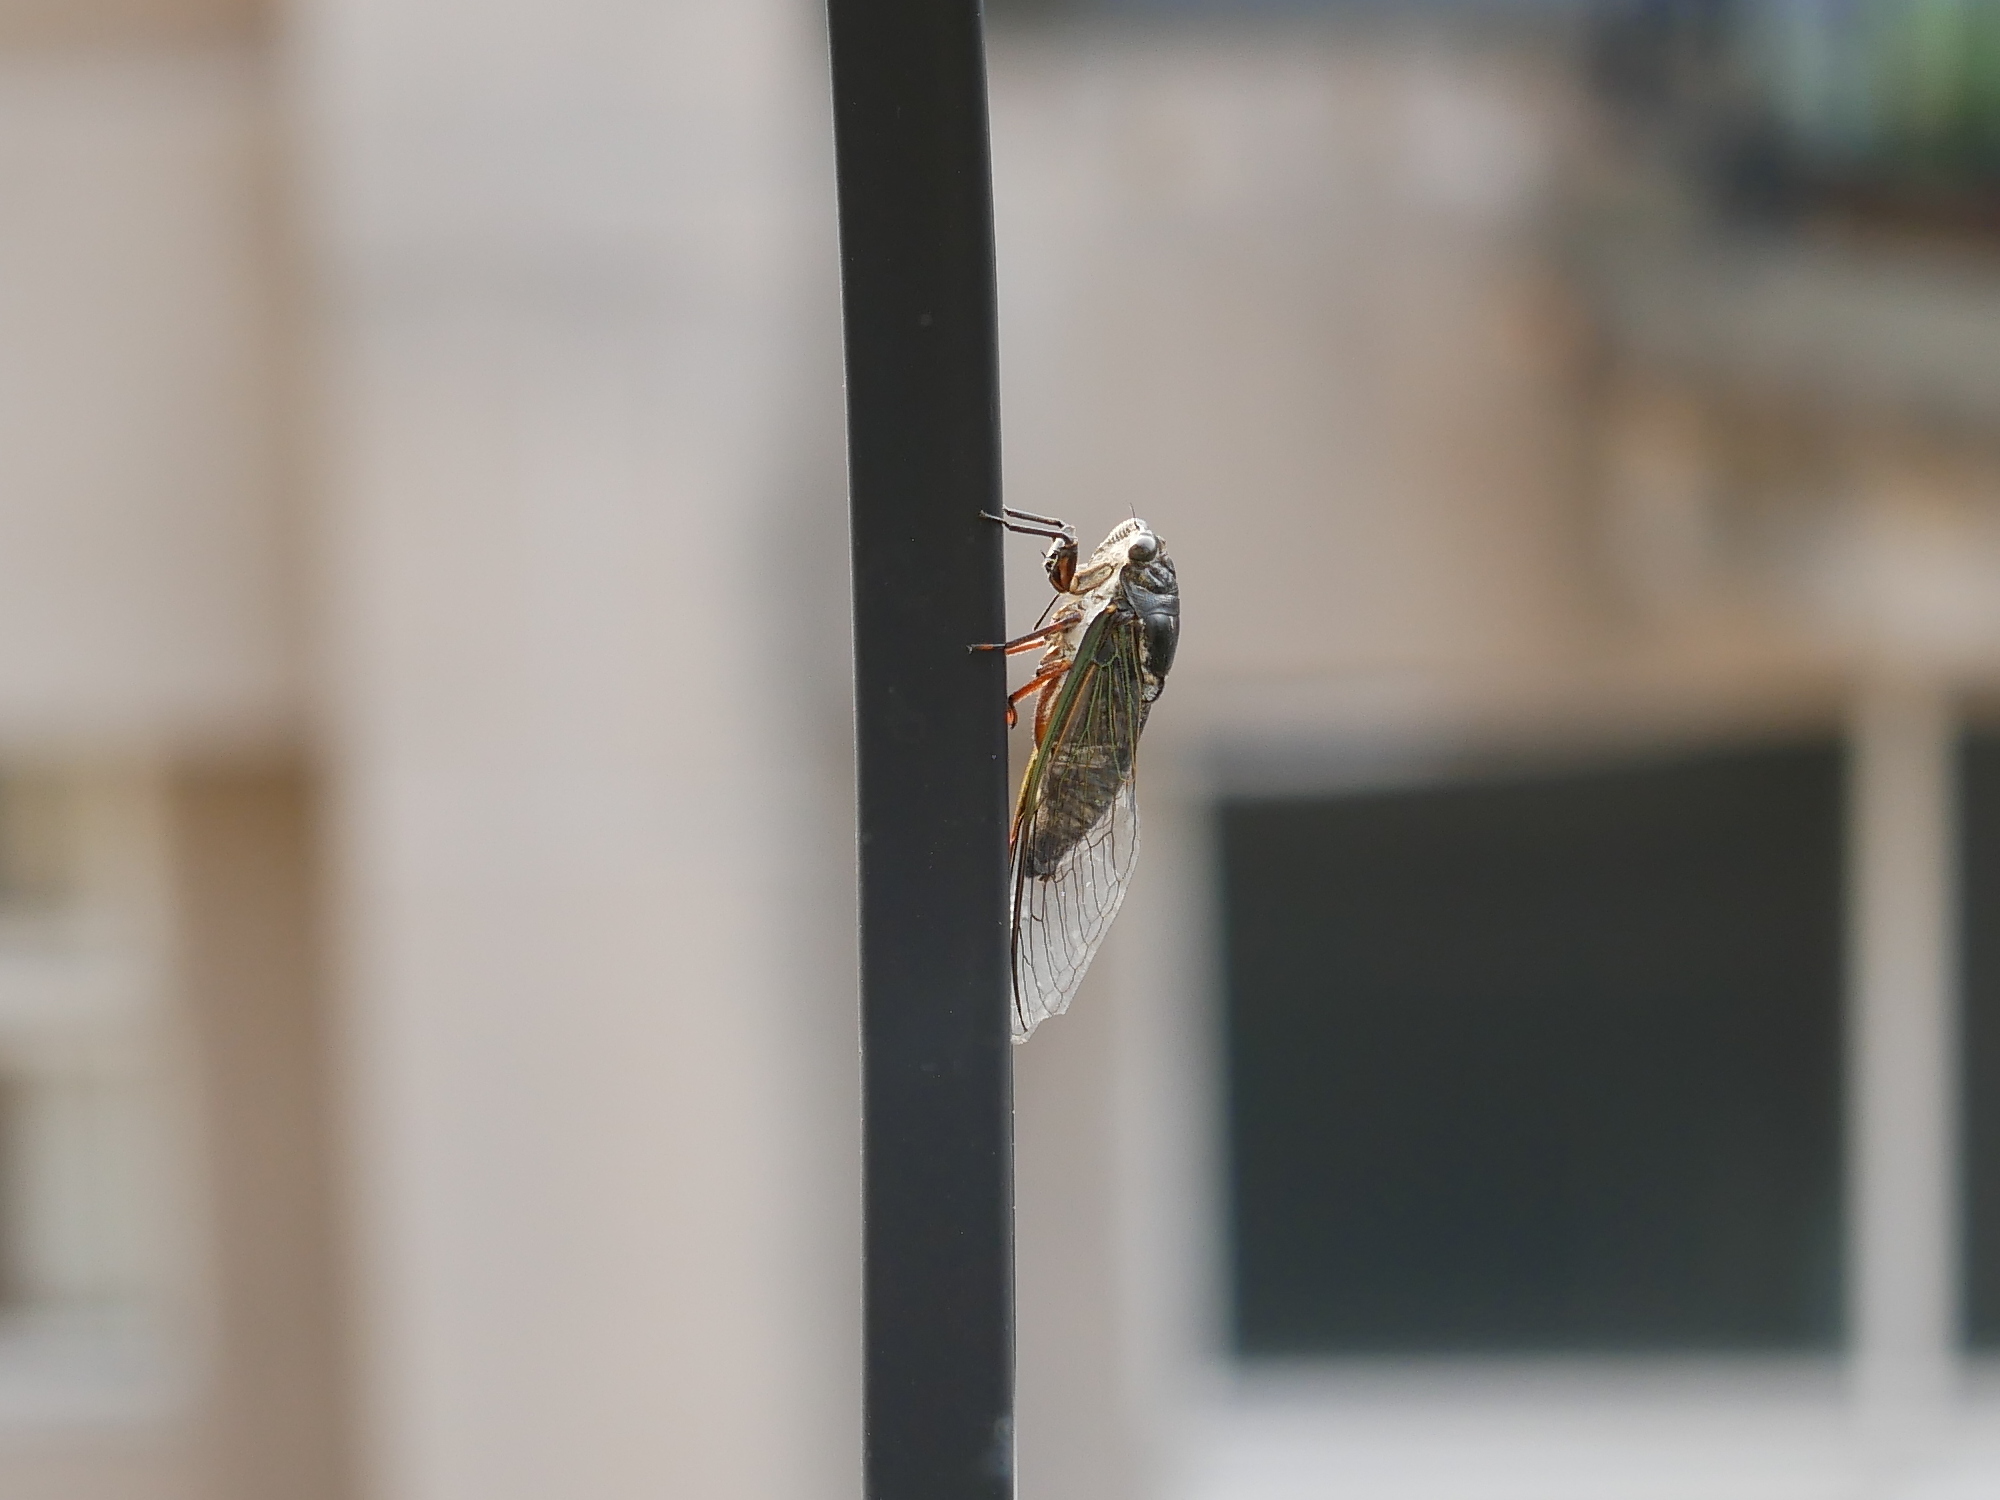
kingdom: Animalia
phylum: Arthropoda
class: Insecta
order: Hemiptera
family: Cicadidae
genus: Cryptotympana
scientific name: Cryptotympana takasagona
